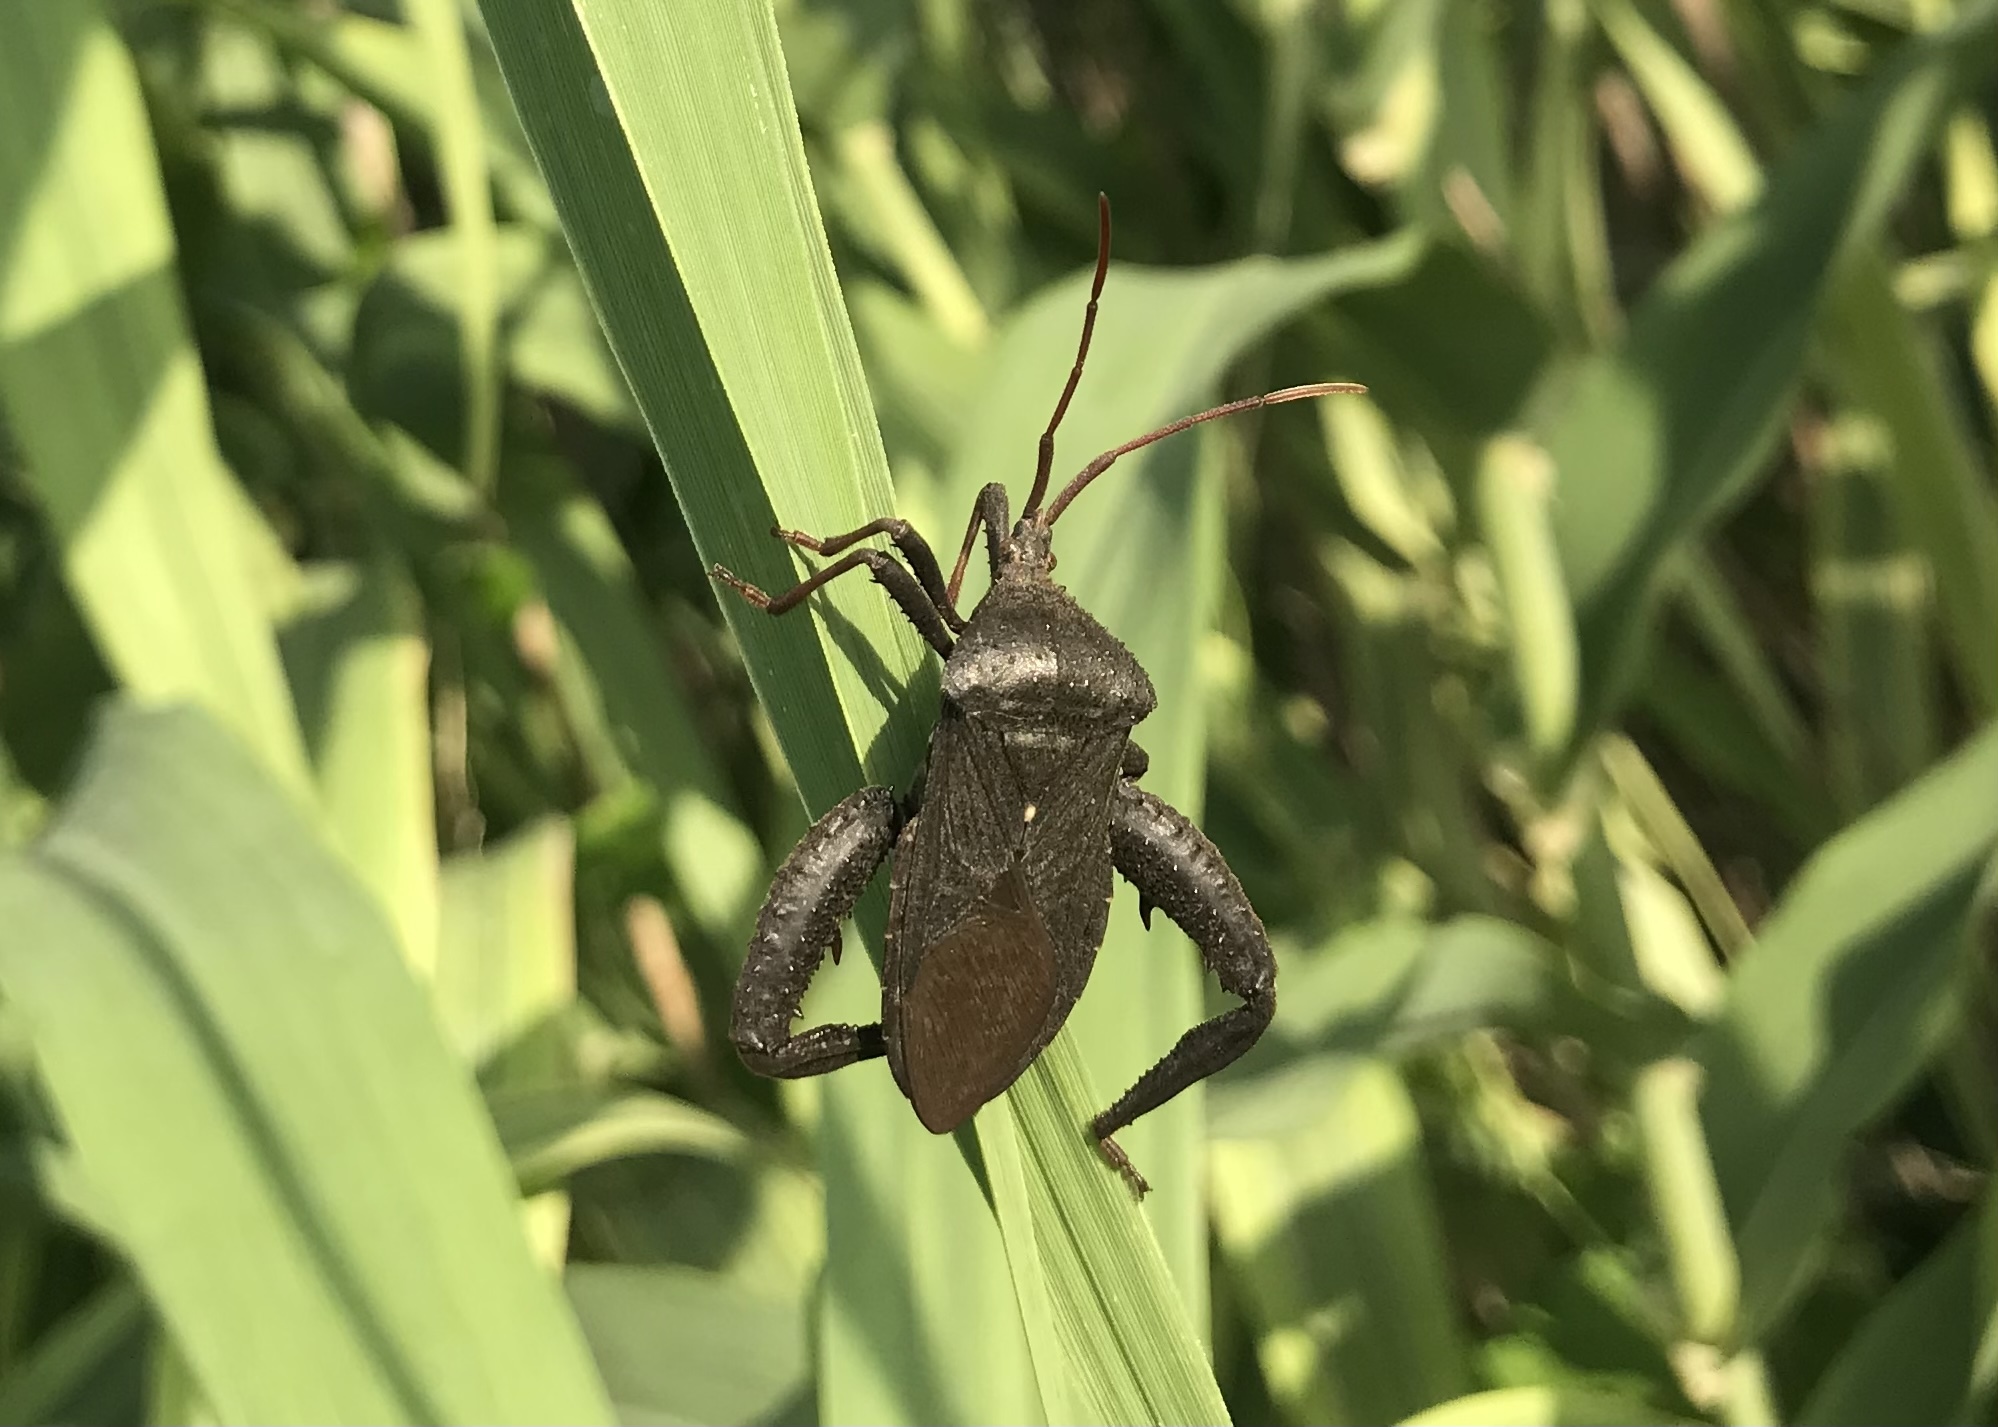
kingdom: Animalia
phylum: Arthropoda
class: Insecta
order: Hemiptera
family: Coreidae
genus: Acanthocephala
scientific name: Acanthocephala femorata
